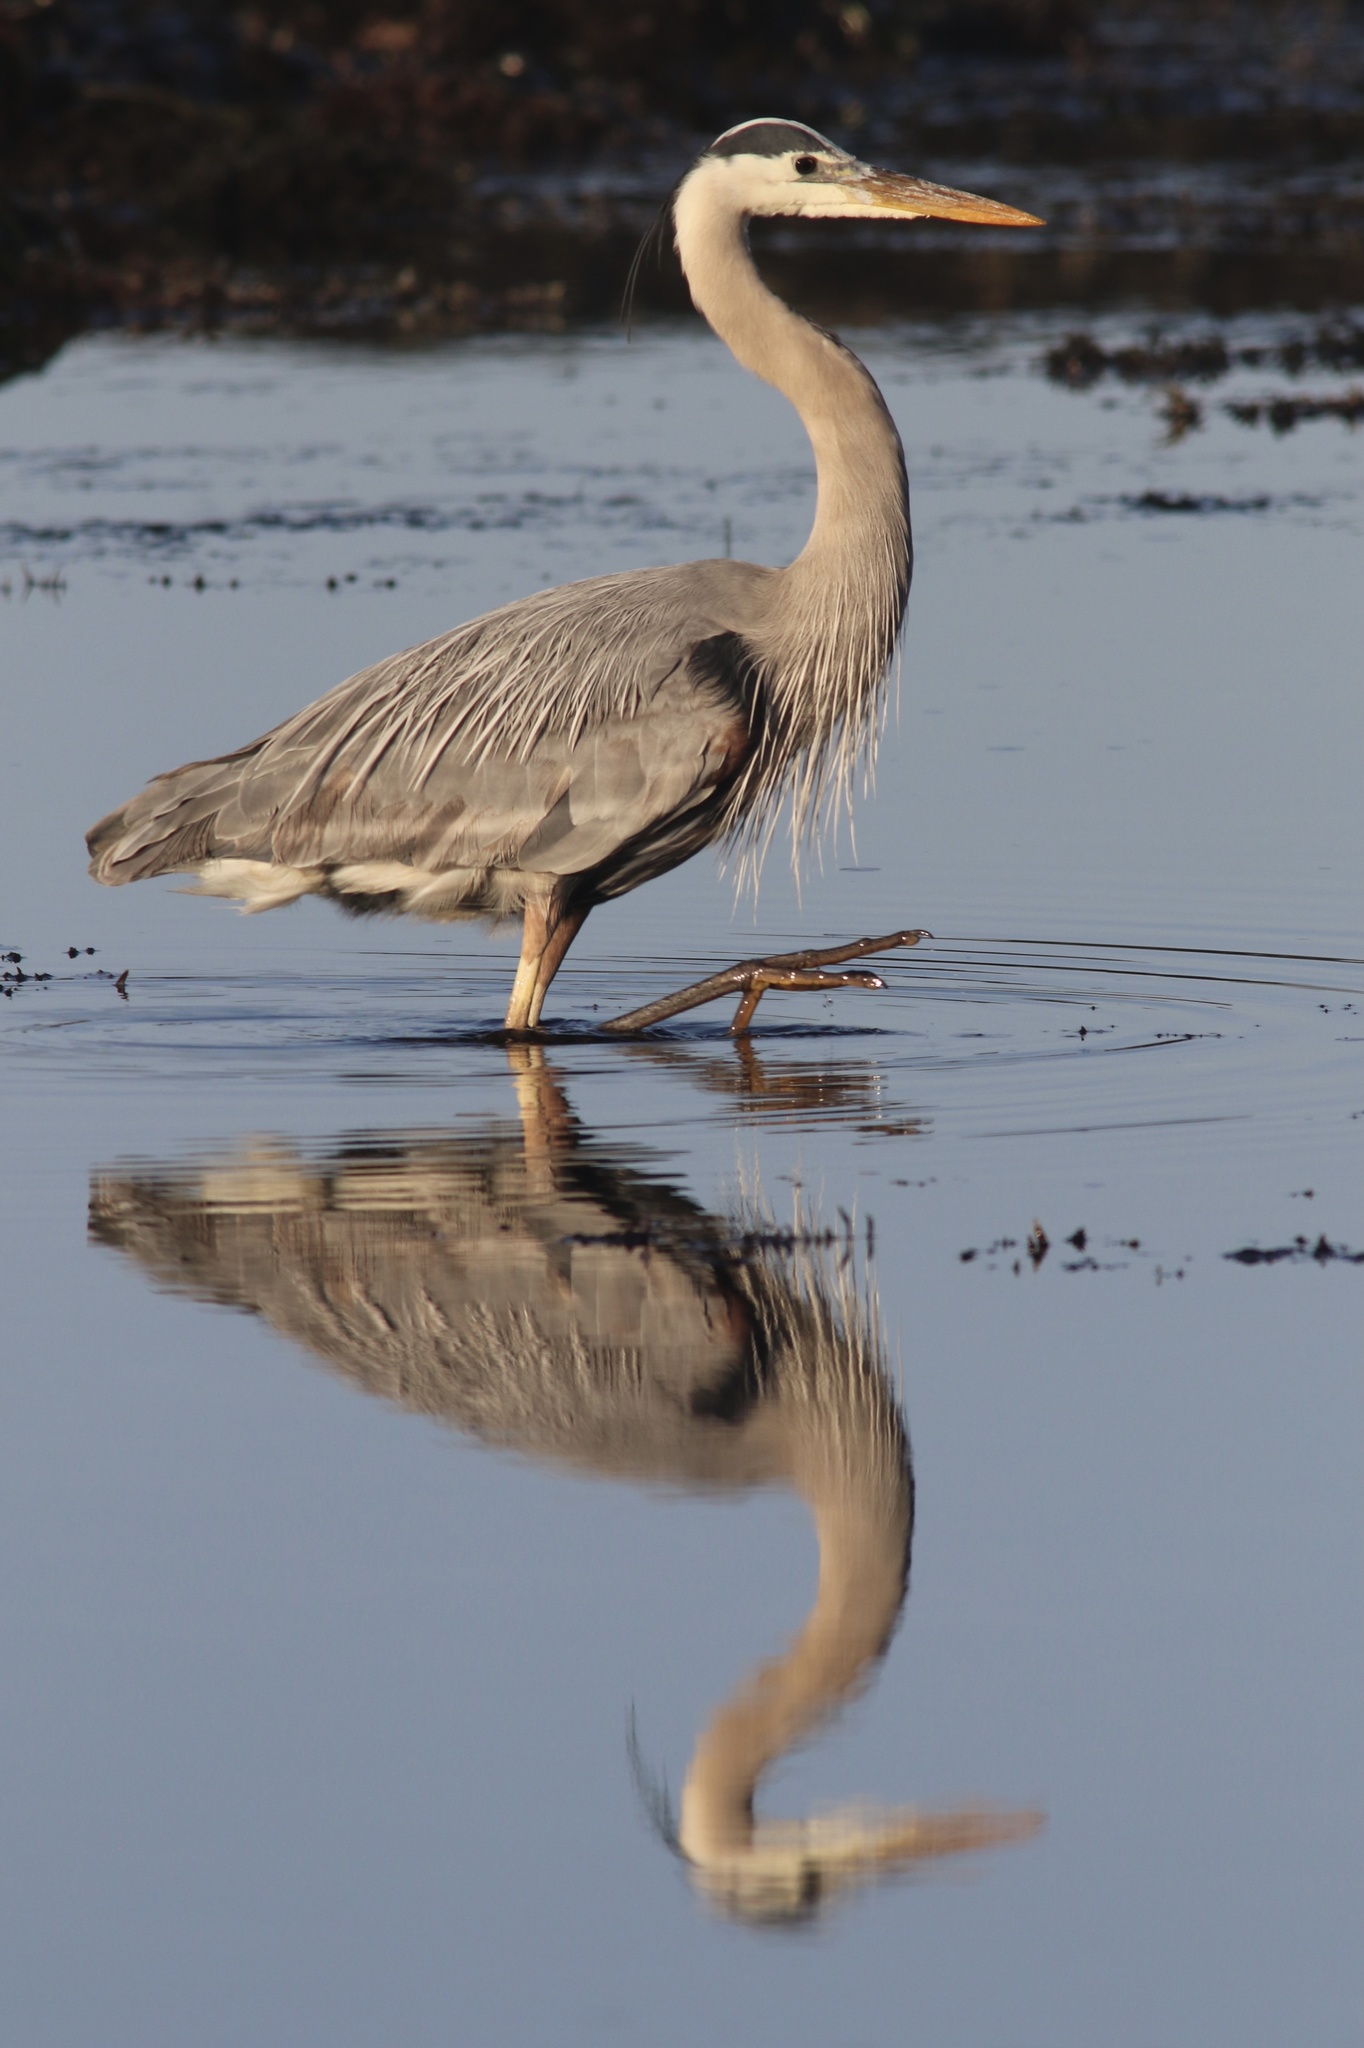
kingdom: Animalia
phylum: Chordata
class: Aves
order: Pelecaniformes
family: Ardeidae
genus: Ardea
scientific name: Ardea herodias
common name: Great blue heron
